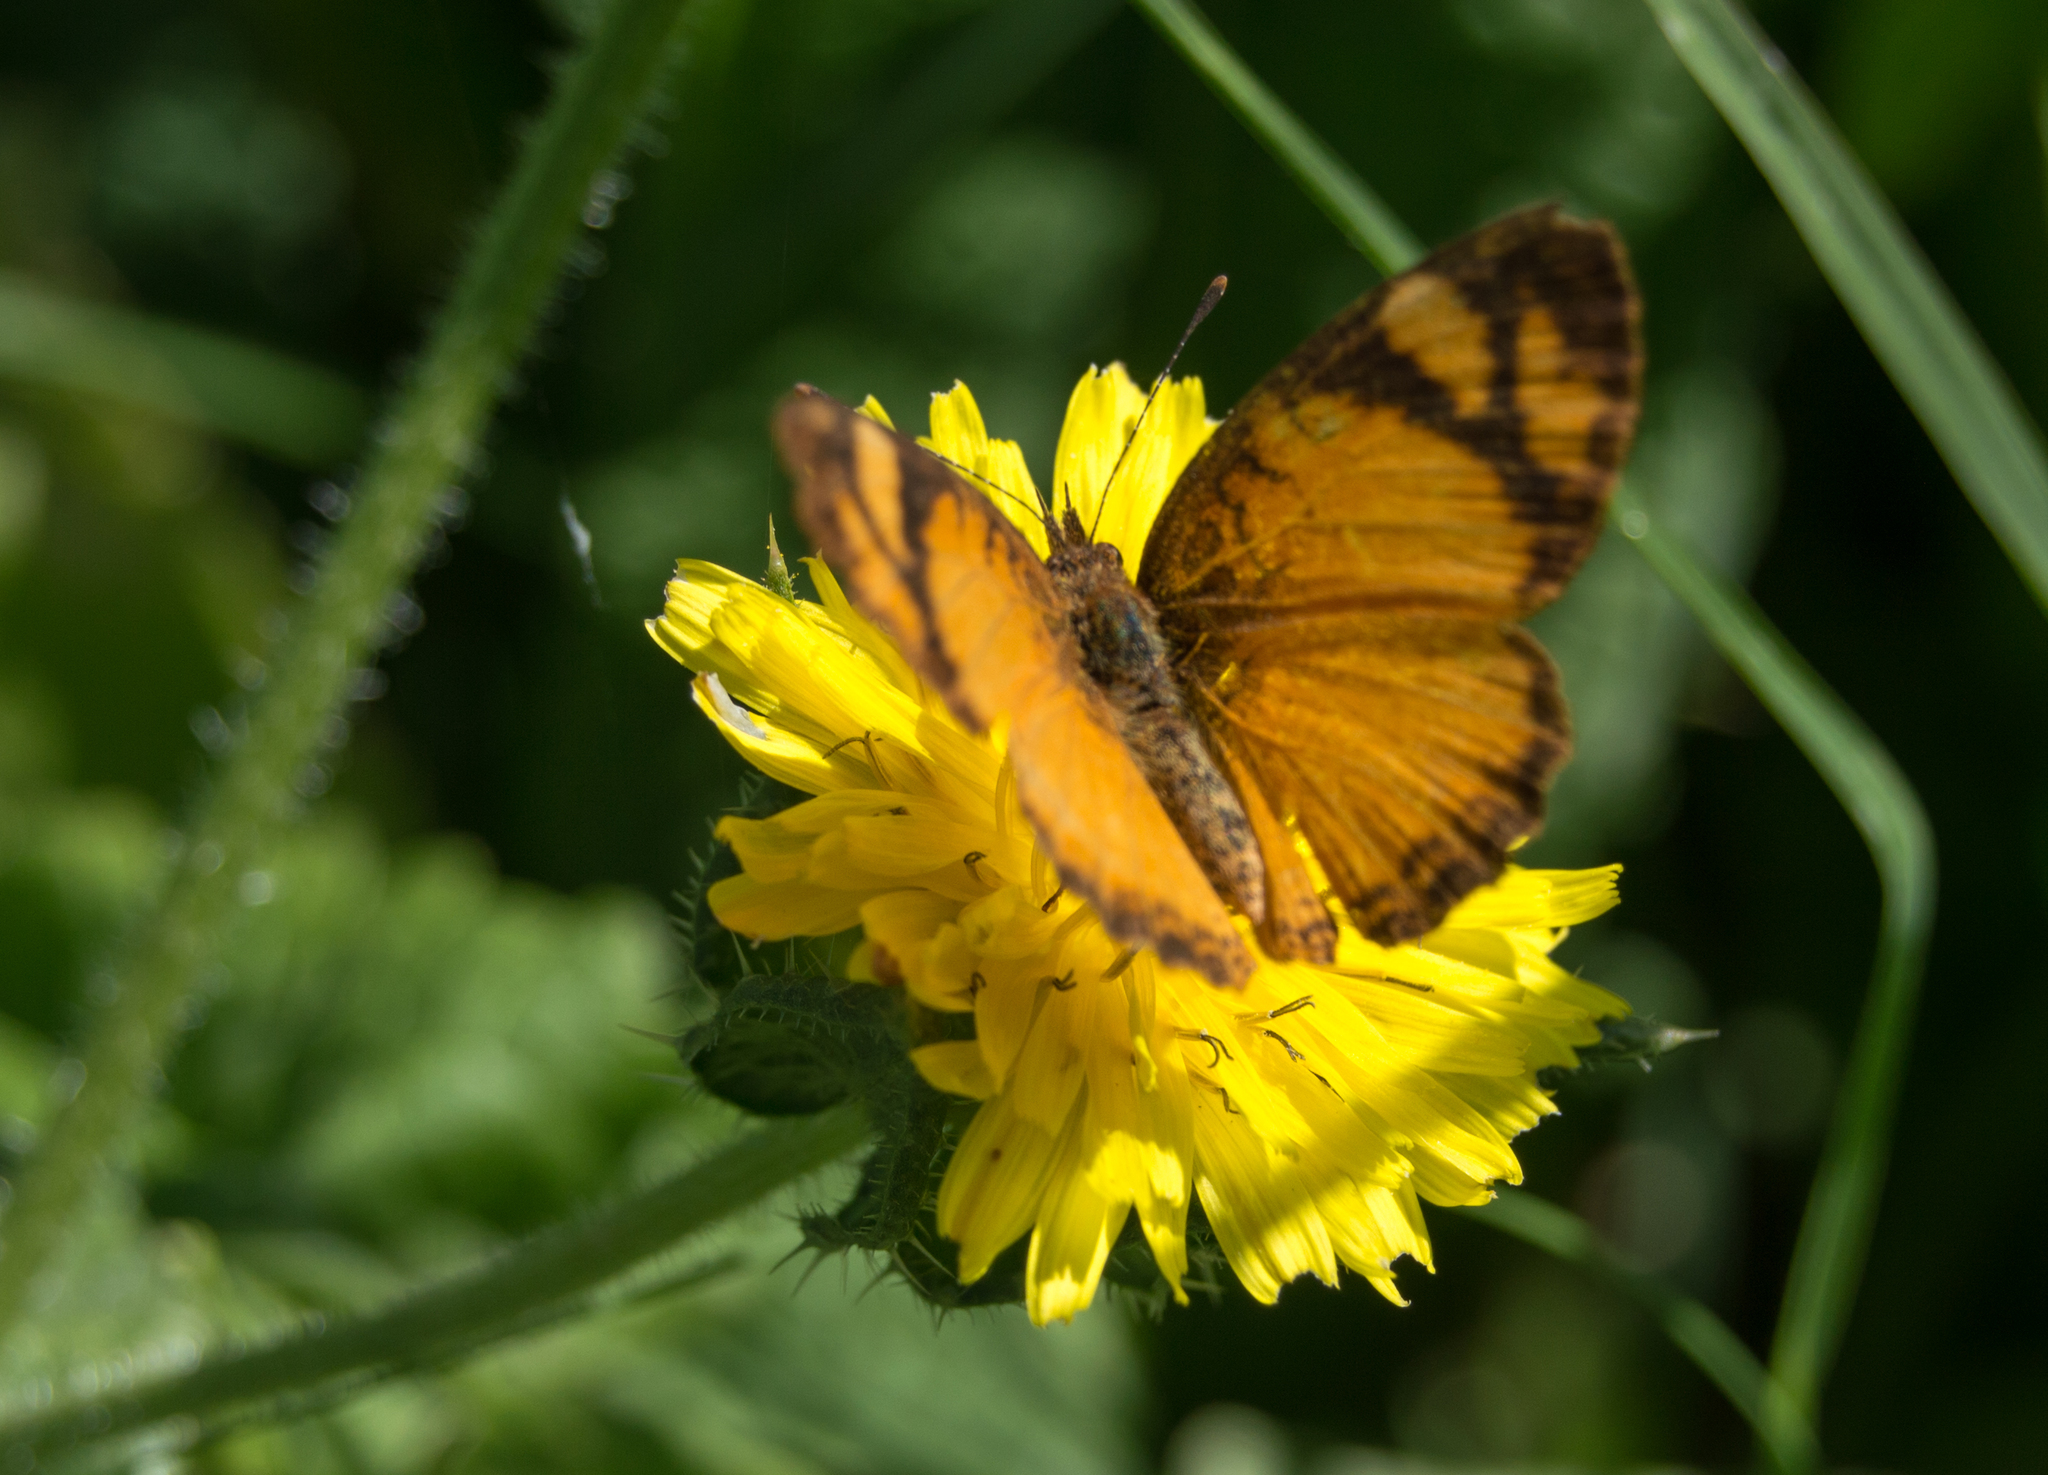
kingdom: Animalia
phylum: Arthropoda
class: Insecta
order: Lepidoptera
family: Nymphalidae
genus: Tegosa
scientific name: Tegosa claudina
